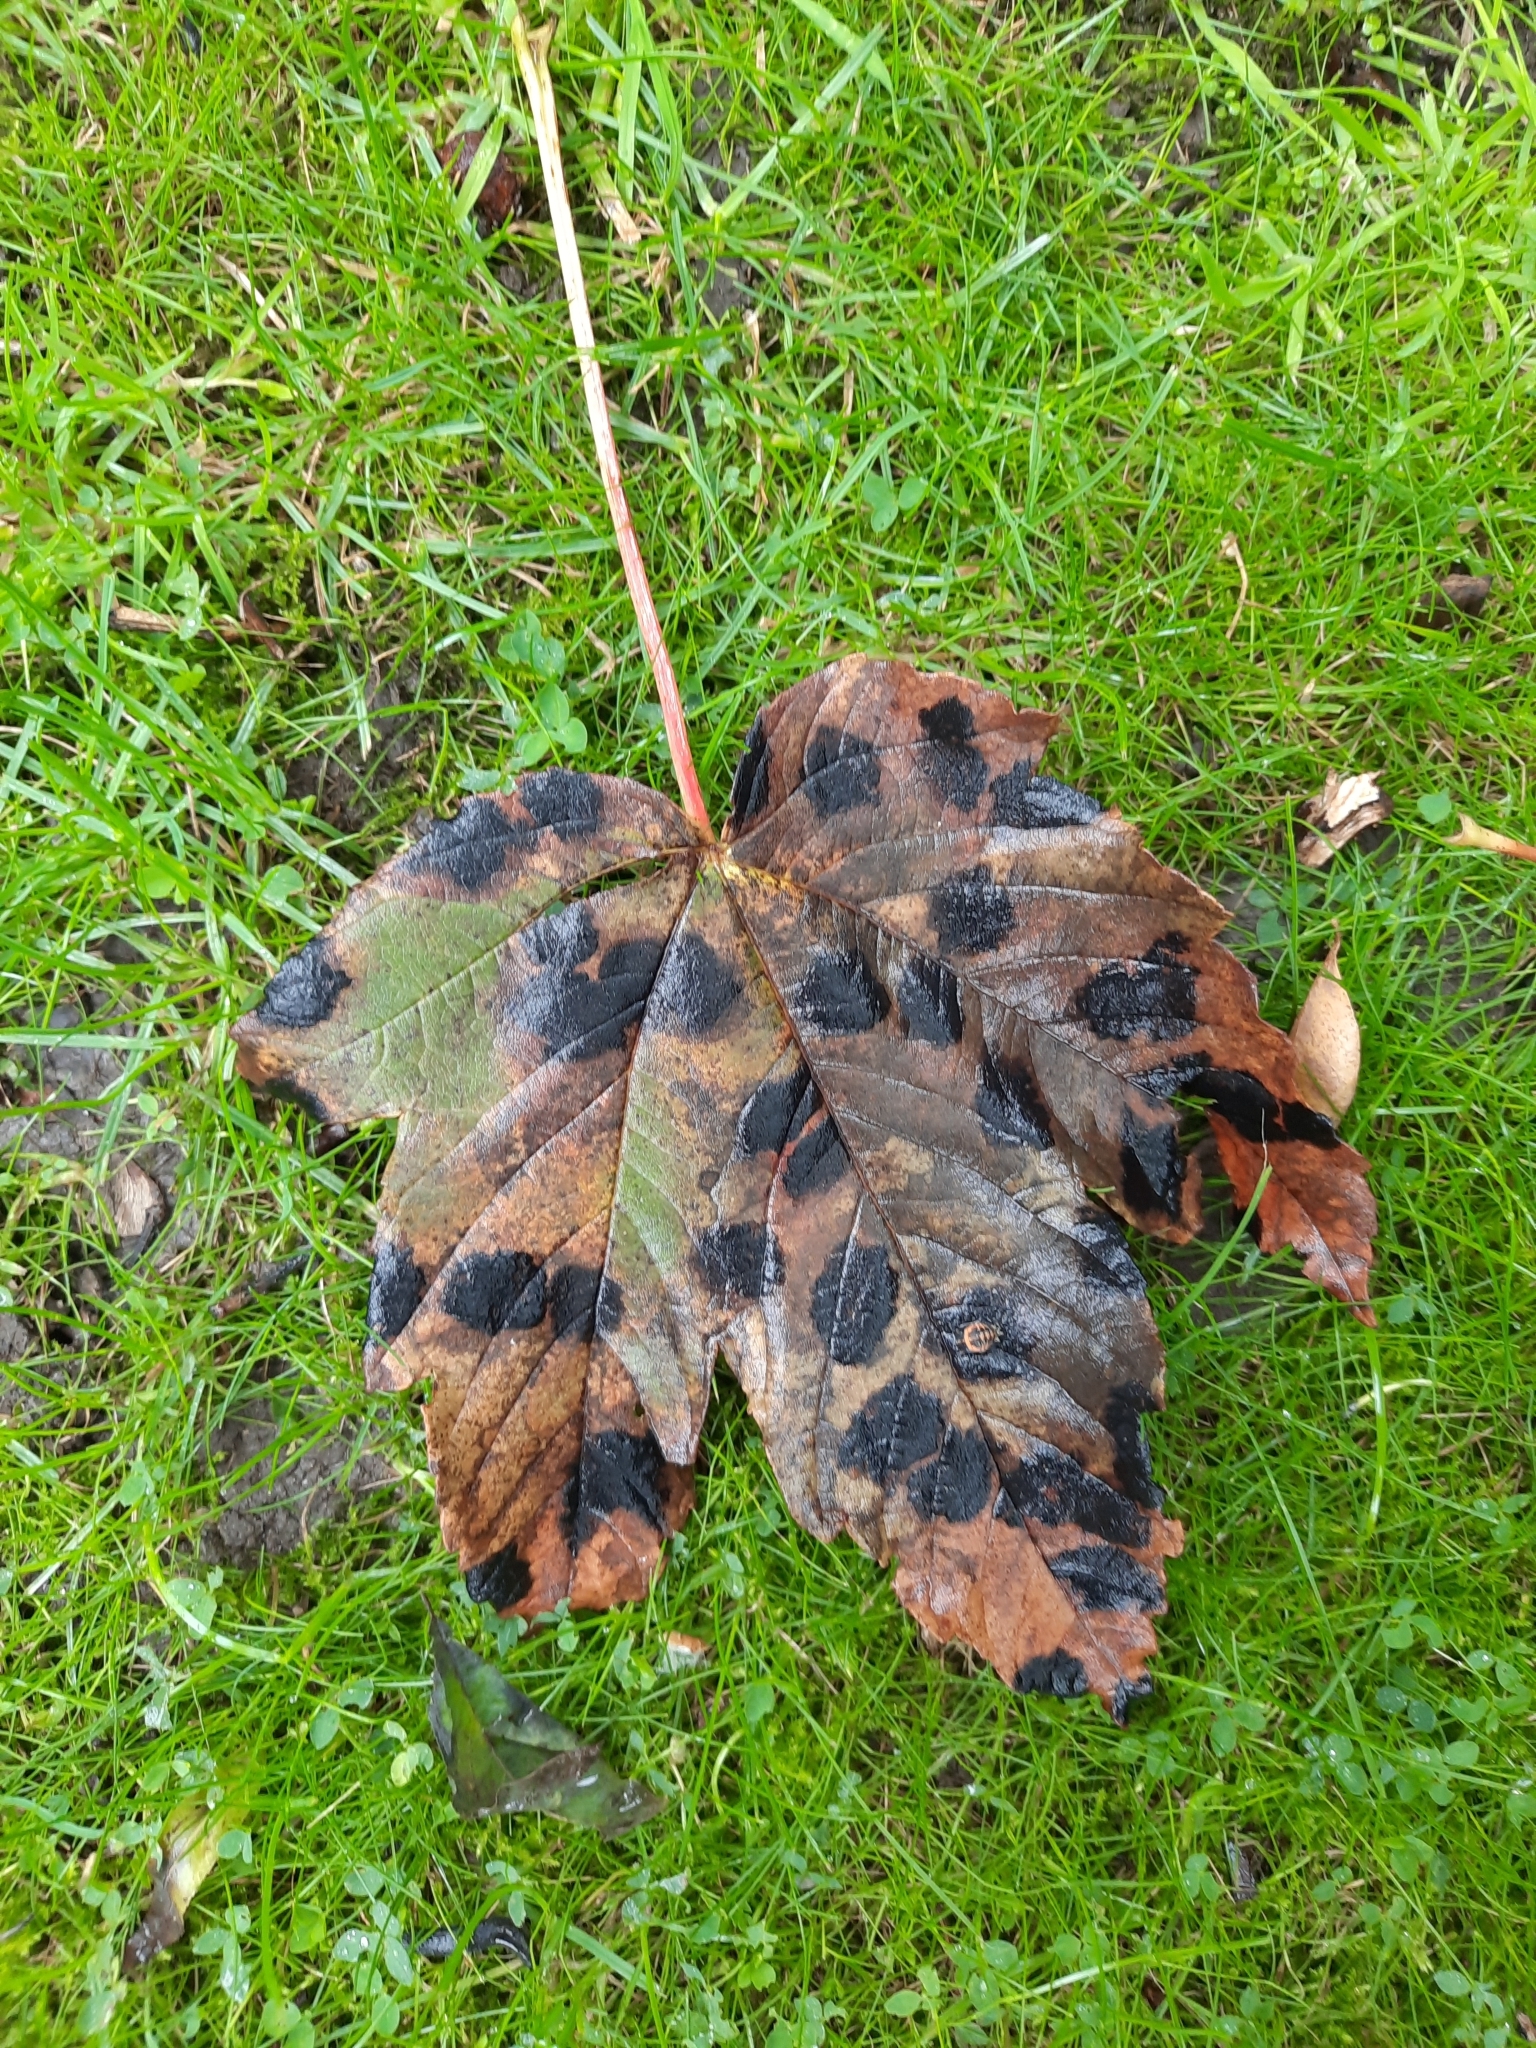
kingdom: Fungi
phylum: Ascomycota
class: Leotiomycetes
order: Rhytismatales
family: Rhytismataceae
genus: Rhytisma
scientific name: Rhytisma acerinum
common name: European tar spot
